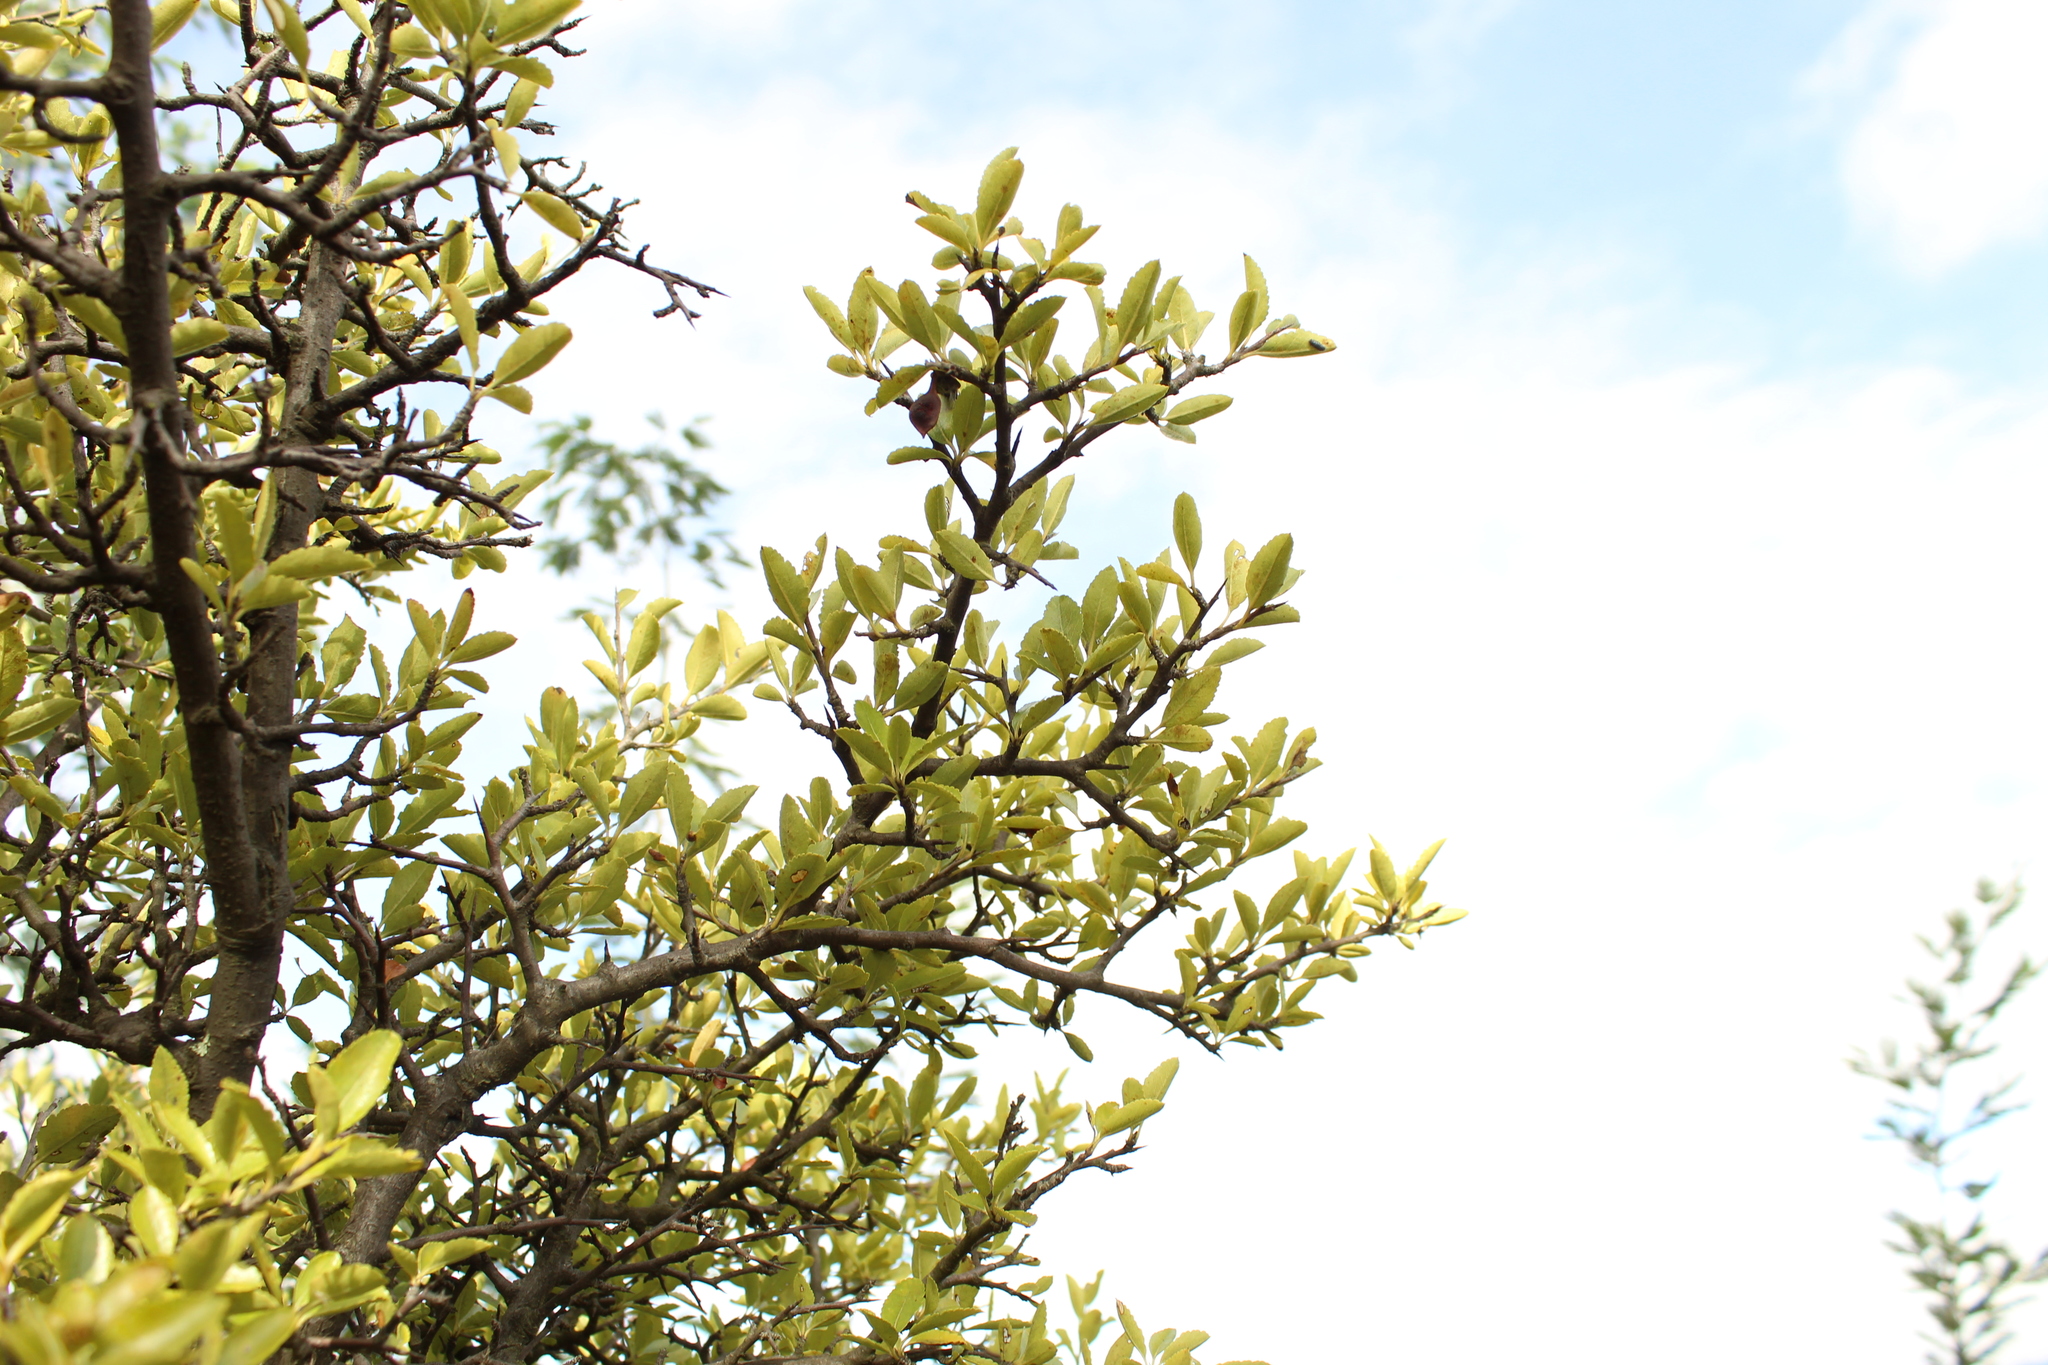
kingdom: Plantae
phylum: Tracheophyta
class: Magnoliopsida
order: Rosales
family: Rosaceae
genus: Hesperomeles
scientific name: Hesperomeles obtusifolia
